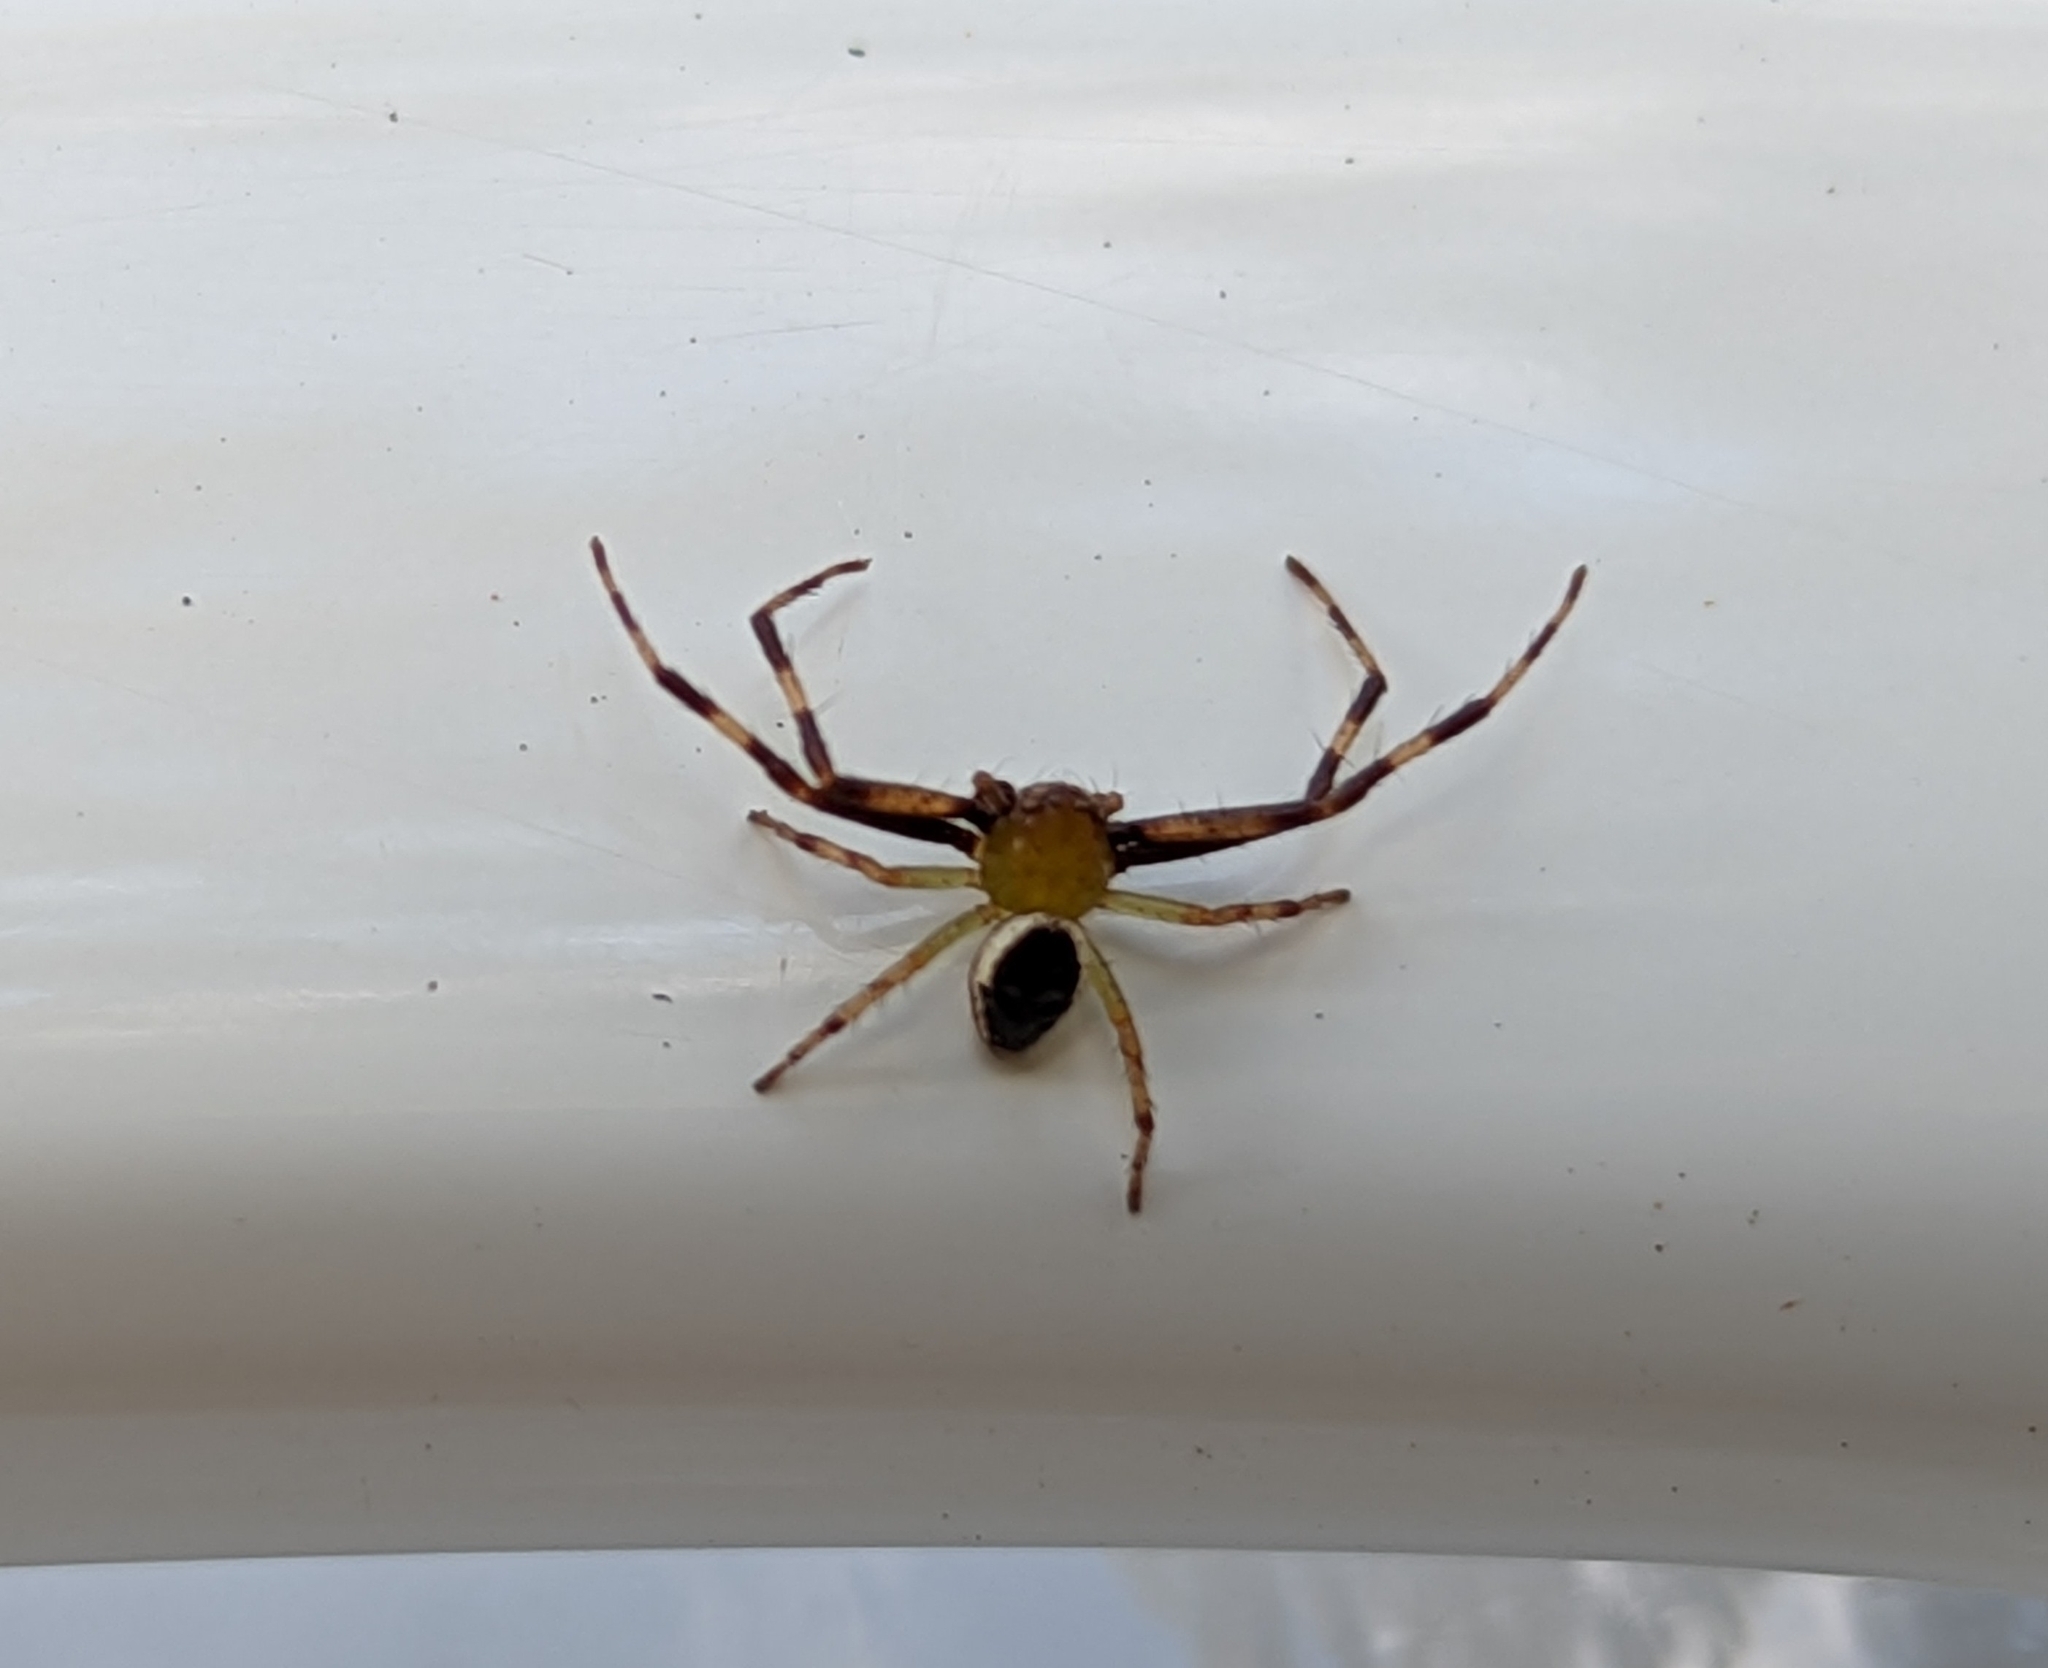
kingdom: Animalia
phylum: Arthropoda
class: Arachnida
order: Araneae
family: Thomisidae
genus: Australomisidia
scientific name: Australomisidia pilula
